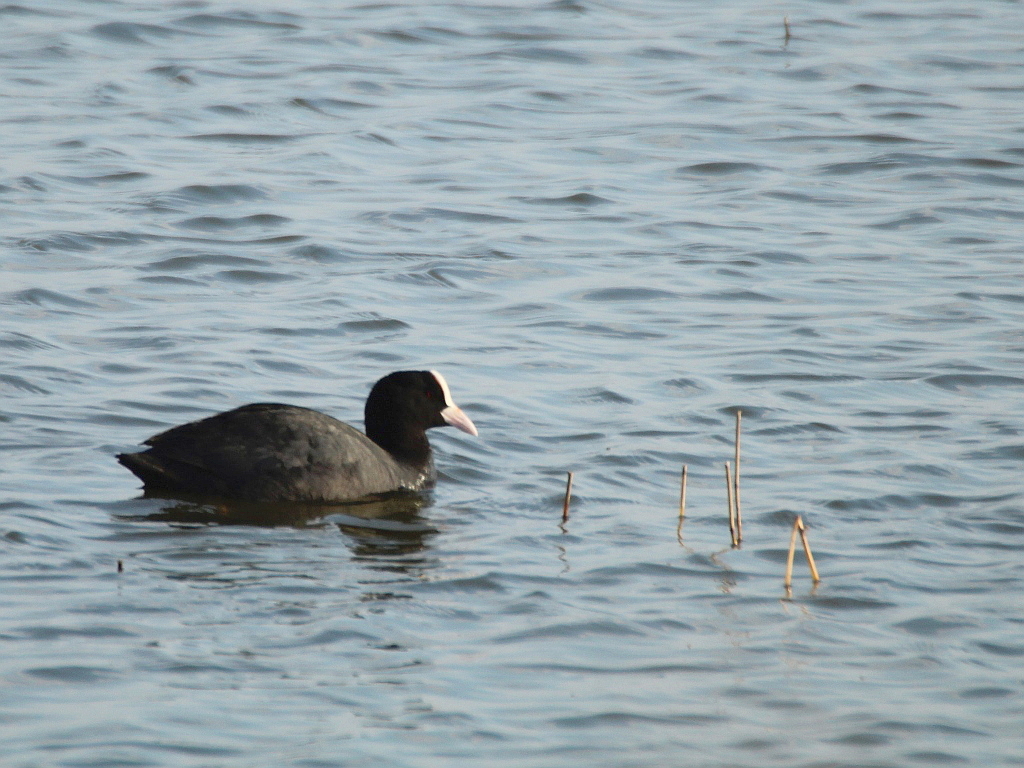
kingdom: Animalia
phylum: Chordata
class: Aves
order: Gruiformes
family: Rallidae
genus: Fulica
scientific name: Fulica atra
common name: Eurasian coot
